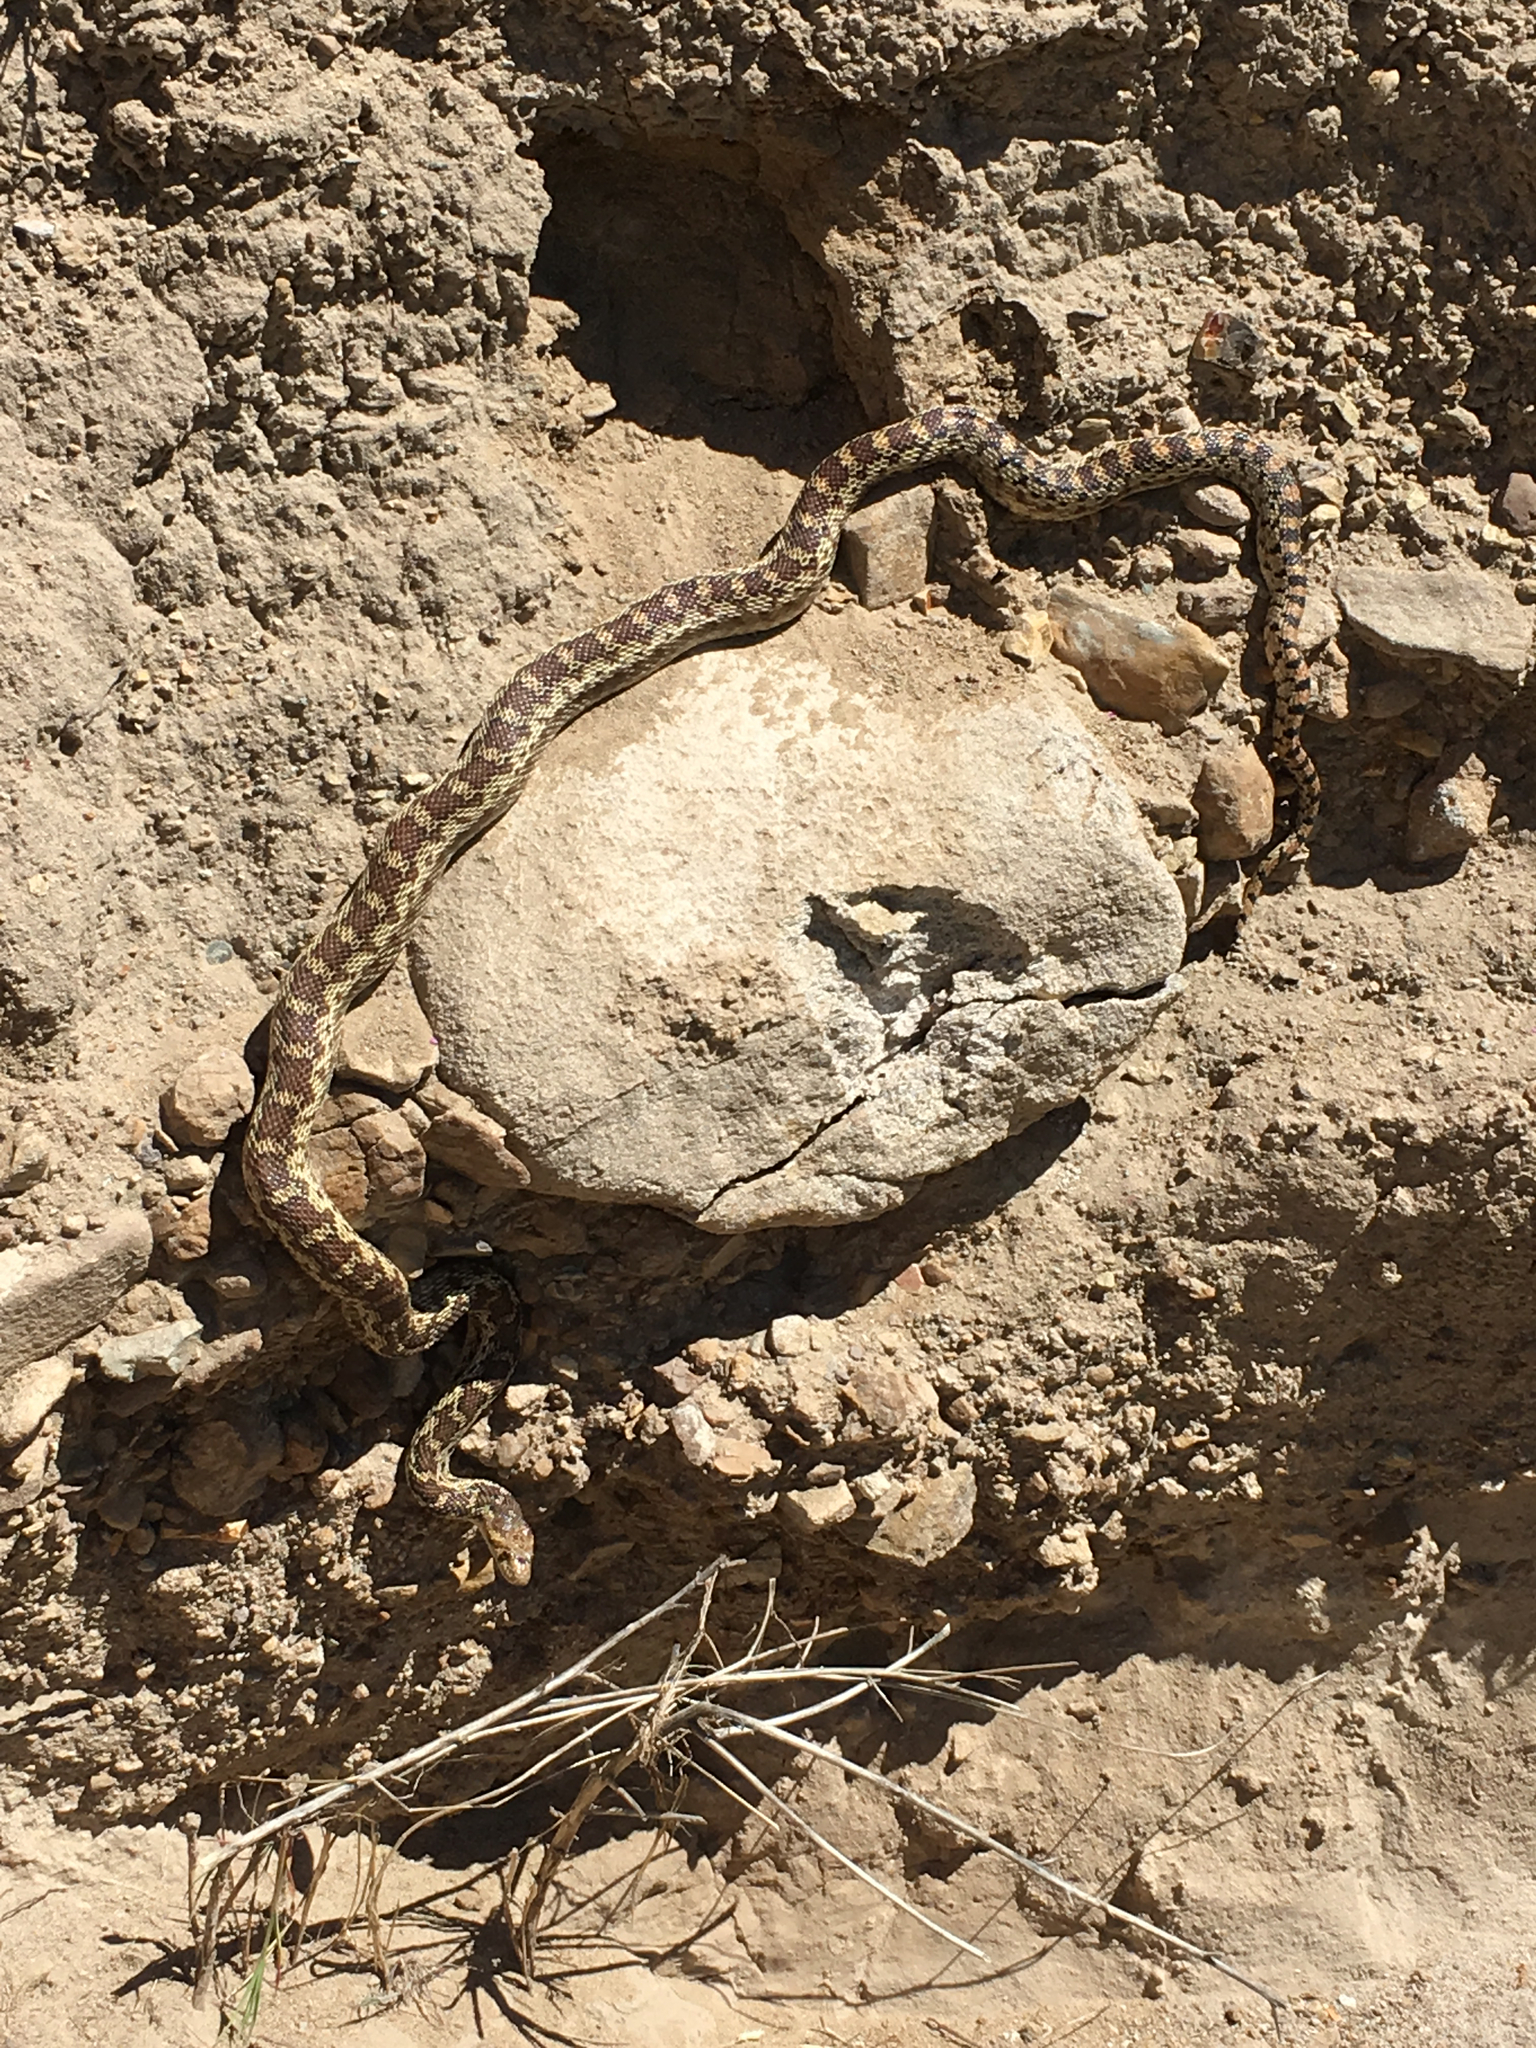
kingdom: Animalia
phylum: Chordata
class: Squamata
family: Colubridae
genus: Pituophis
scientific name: Pituophis catenifer
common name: Gopher snake
